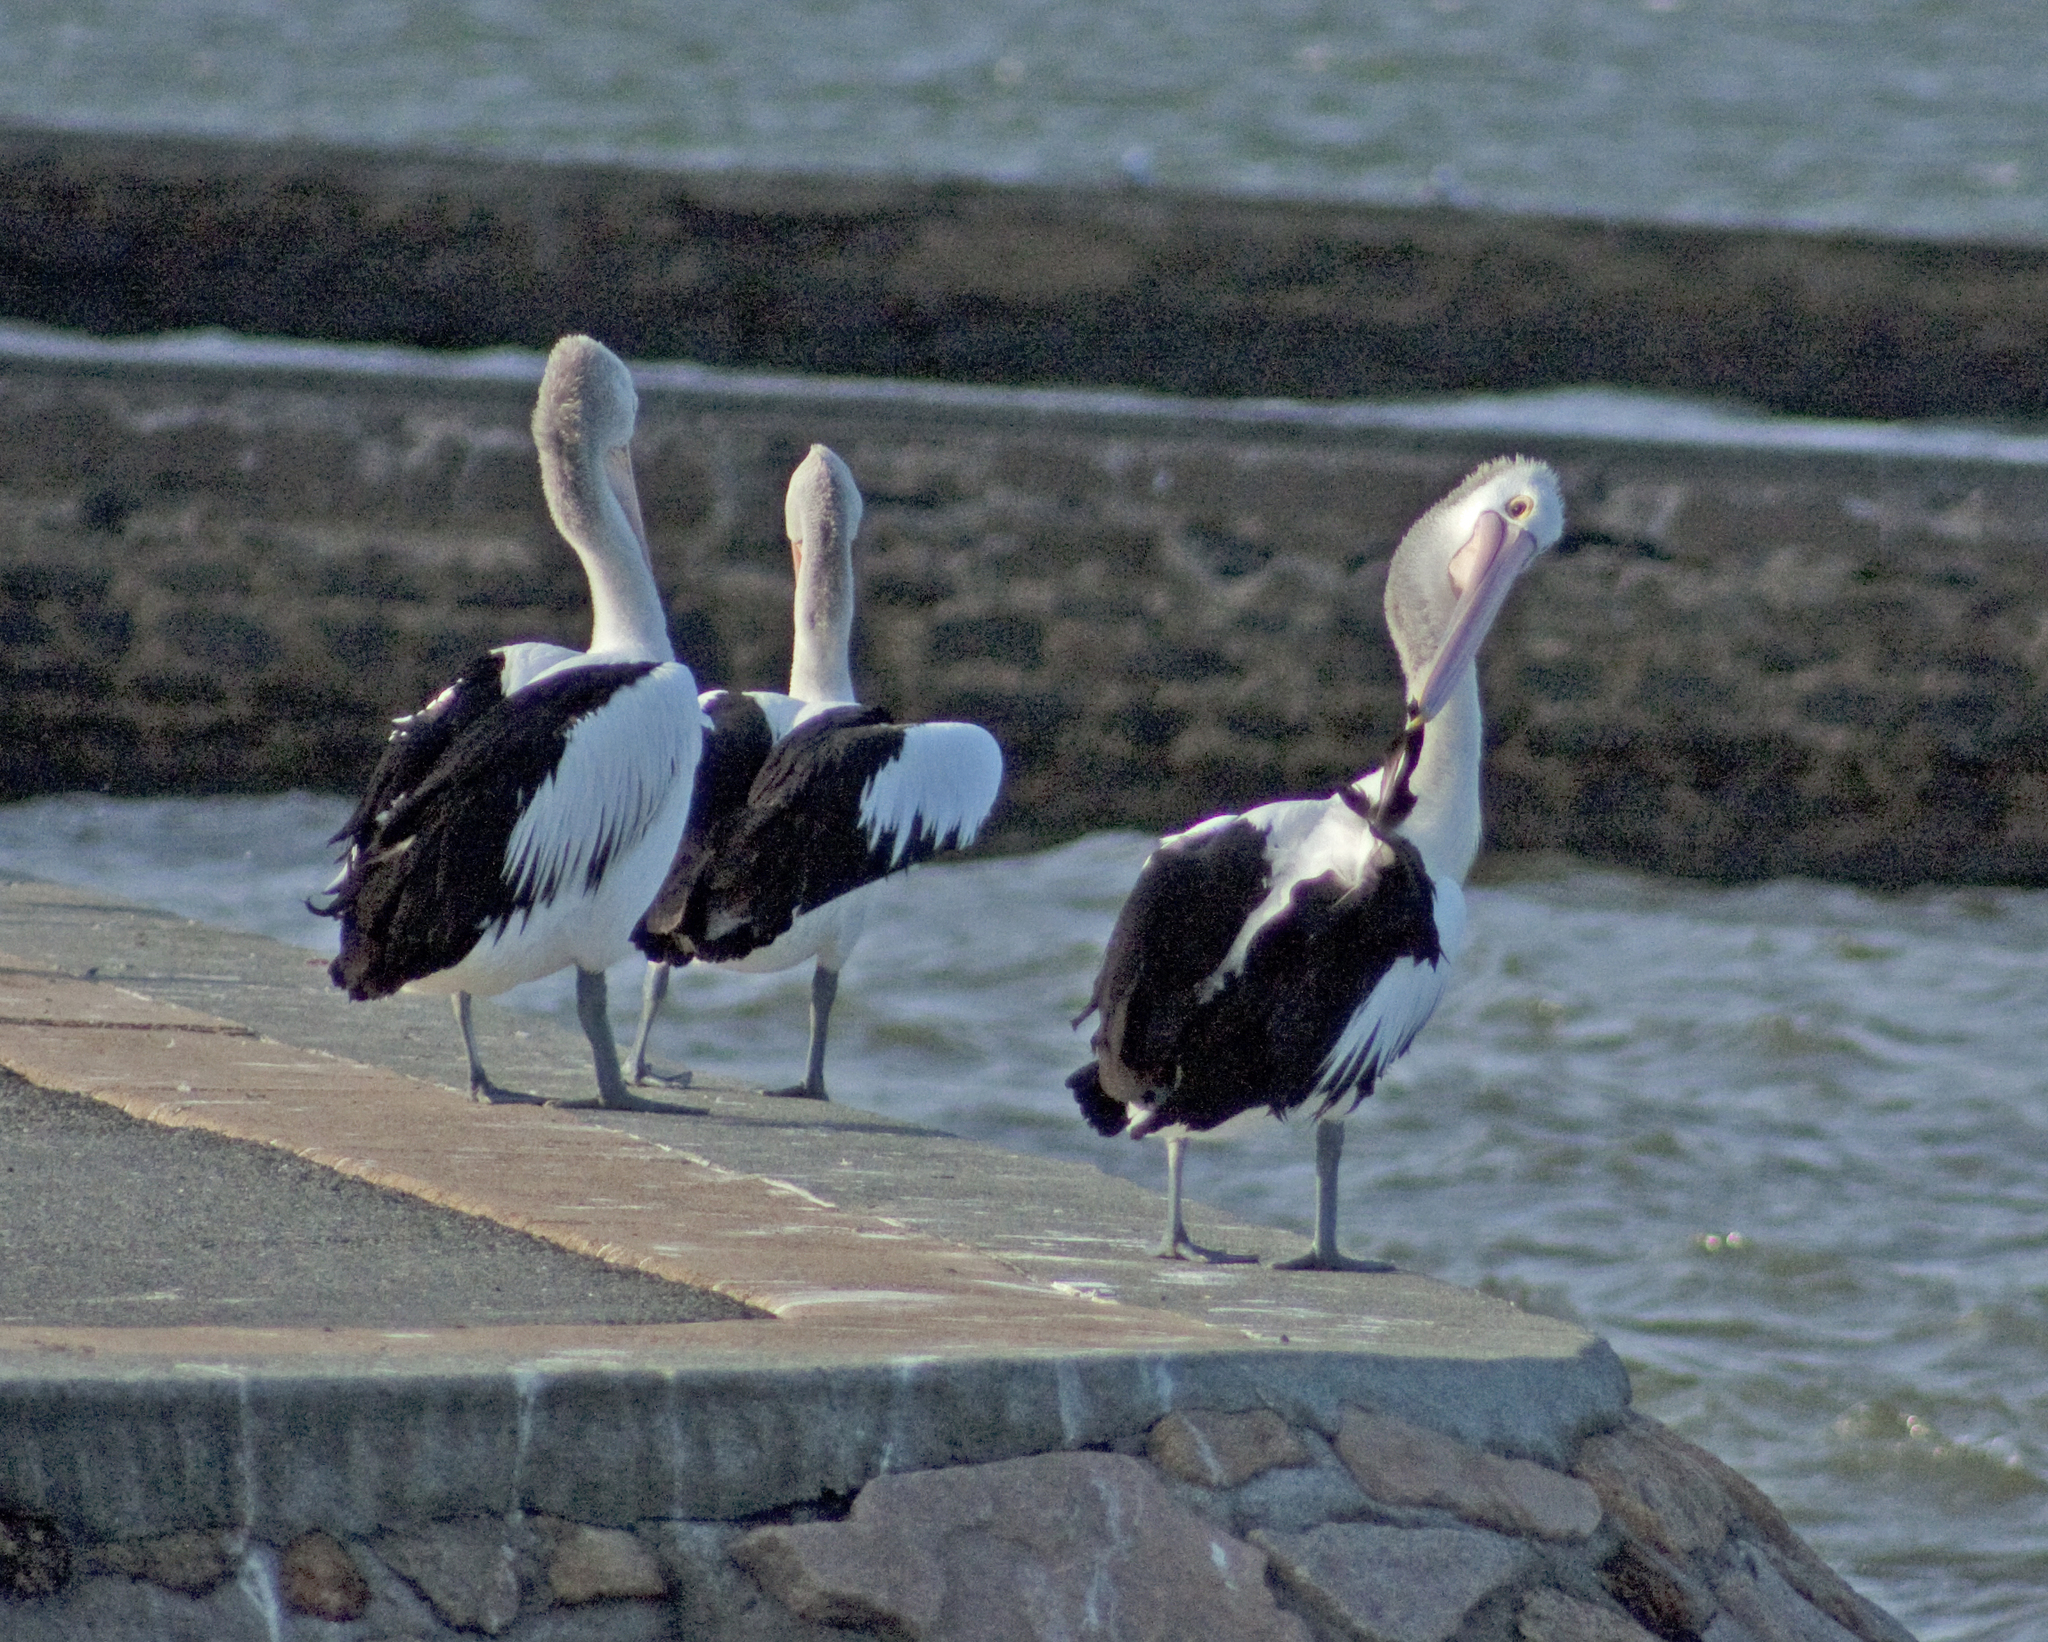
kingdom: Animalia
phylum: Chordata
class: Aves
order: Pelecaniformes
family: Pelecanidae
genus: Pelecanus
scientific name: Pelecanus conspicillatus
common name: Australian pelican
